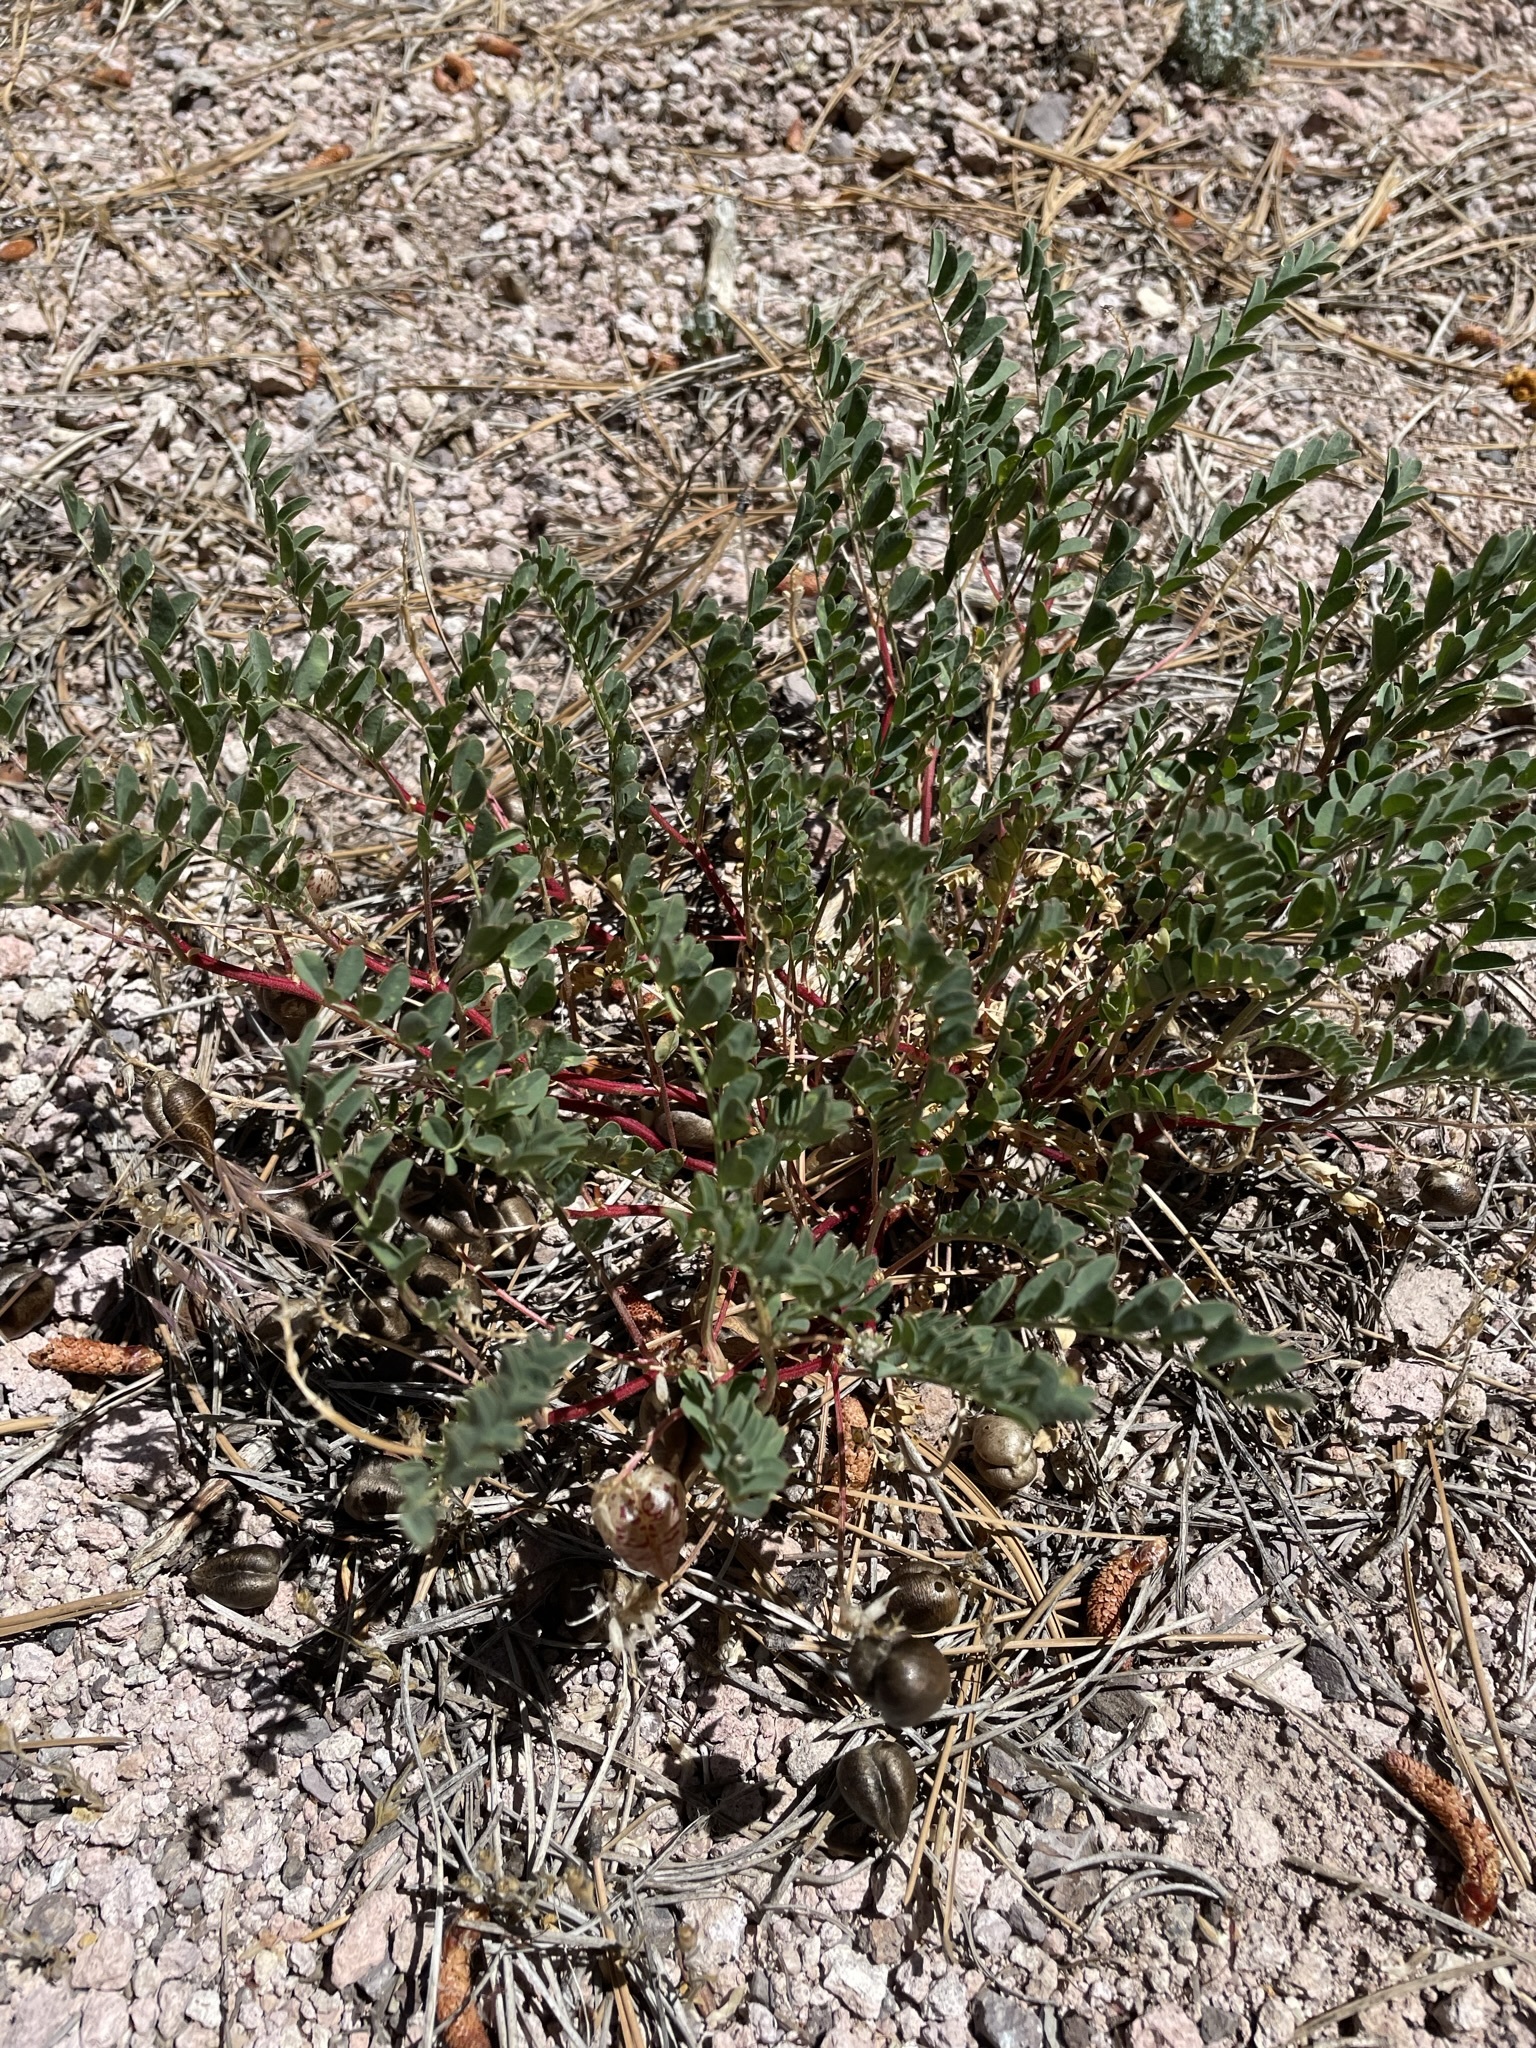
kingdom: Plantae
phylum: Tracheophyta
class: Magnoliopsida
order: Fabales
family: Fabaceae
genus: Astragalus
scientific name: Astragalus lentiginosus
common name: Freckled milkvetch
